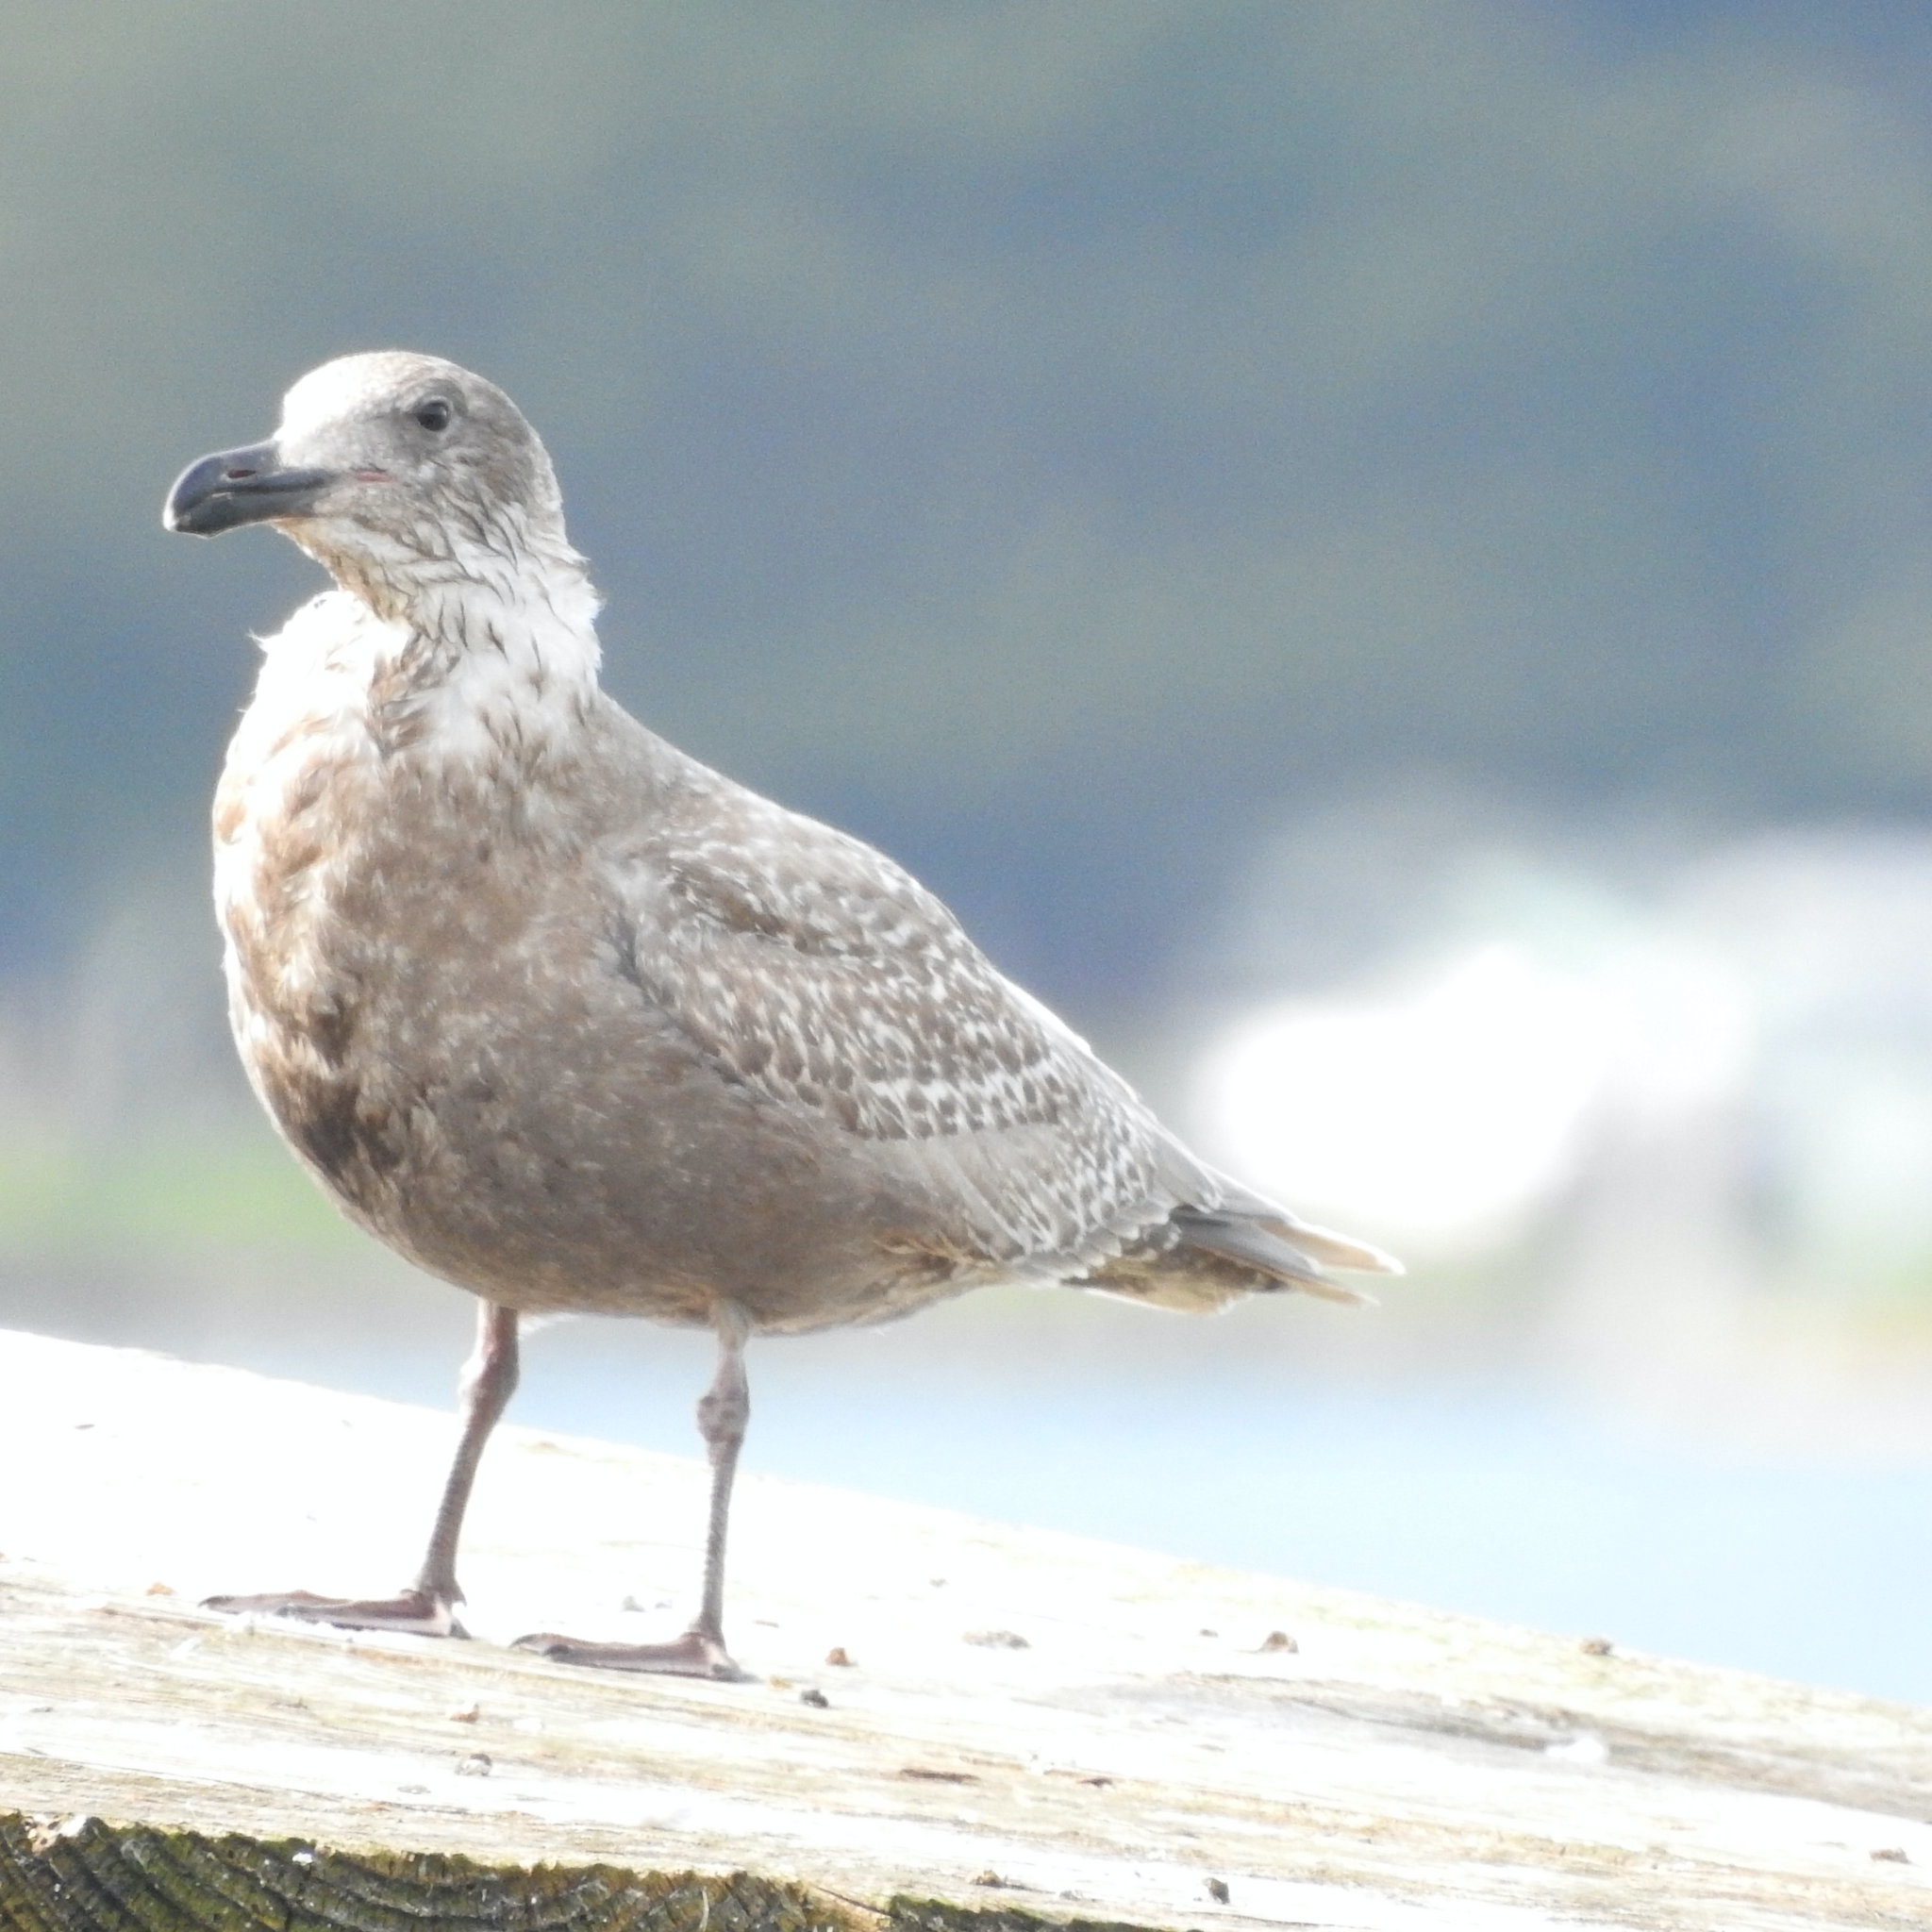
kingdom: Animalia
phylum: Chordata
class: Aves
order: Charadriiformes
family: Laridae
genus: Larus
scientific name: Larus glaucescens
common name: Glaucous-winged gull
